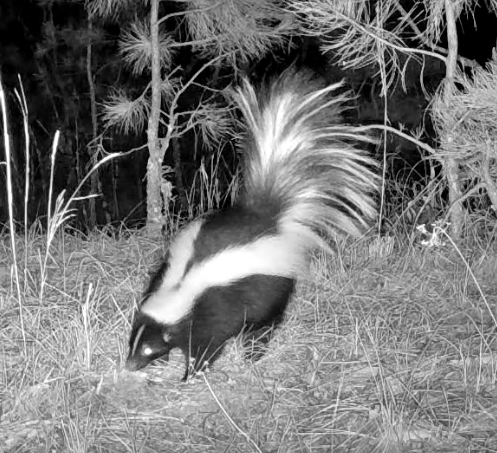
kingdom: Animalia
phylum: Chordata
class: Mammalia
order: Carnivora
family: Mephitidae
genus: Mephitis
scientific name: Mephitis mephitis
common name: Striped skunk
